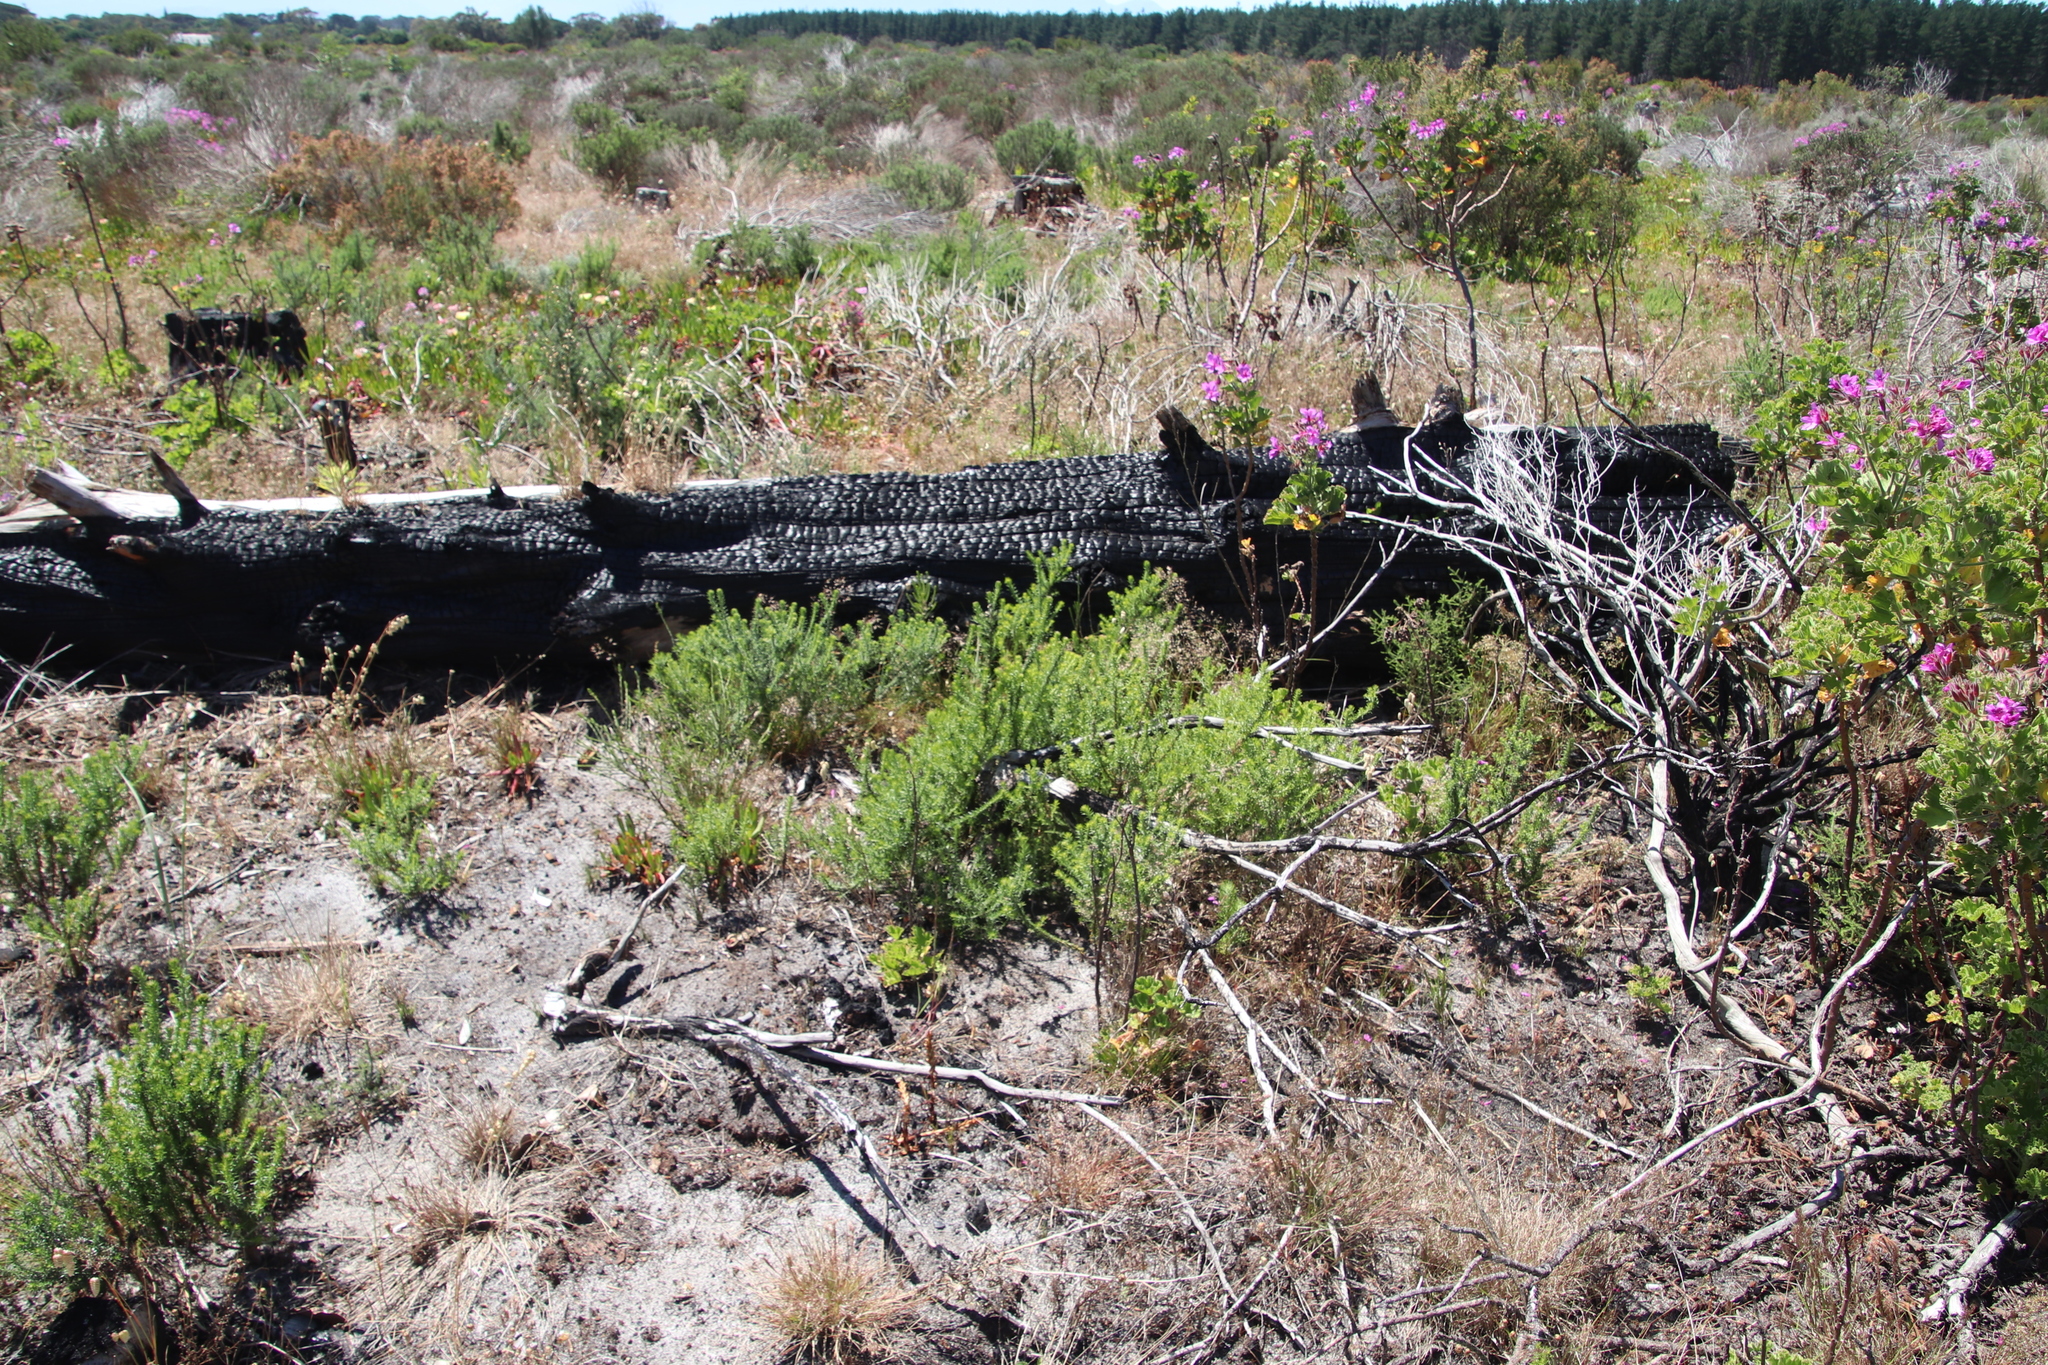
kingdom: Plantae
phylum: Tracheophyta
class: Magnoliopsida
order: Asterales
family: Asteraceae
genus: Metalasia
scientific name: Metalasia densa
